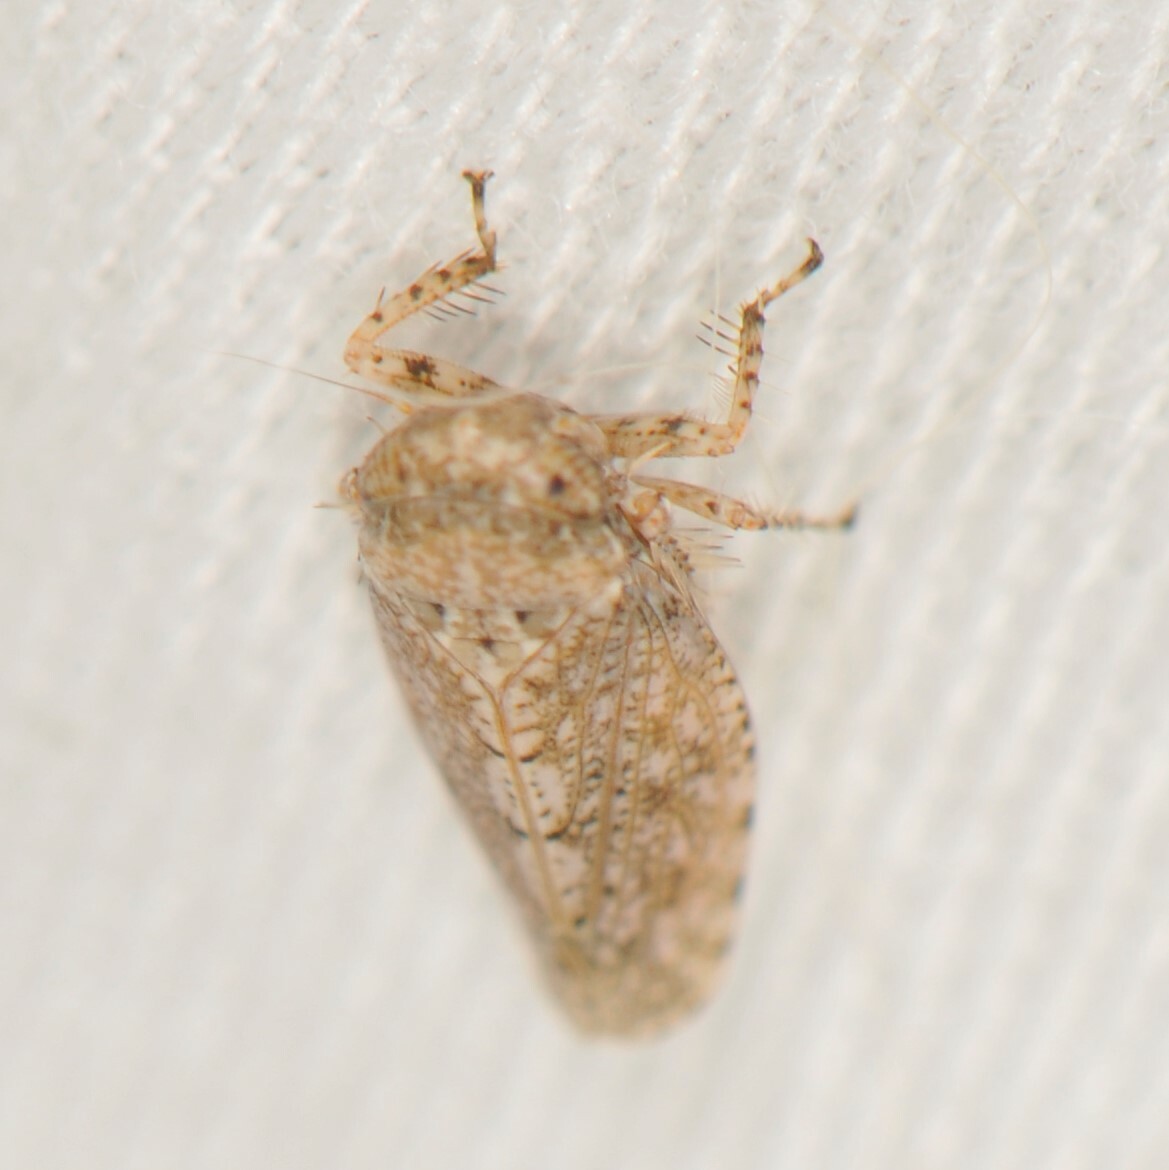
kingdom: Animalia
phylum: Arthropoda
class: Insecta
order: Hemiptera
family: Cicadellidae
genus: Texananus
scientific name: Texananus
